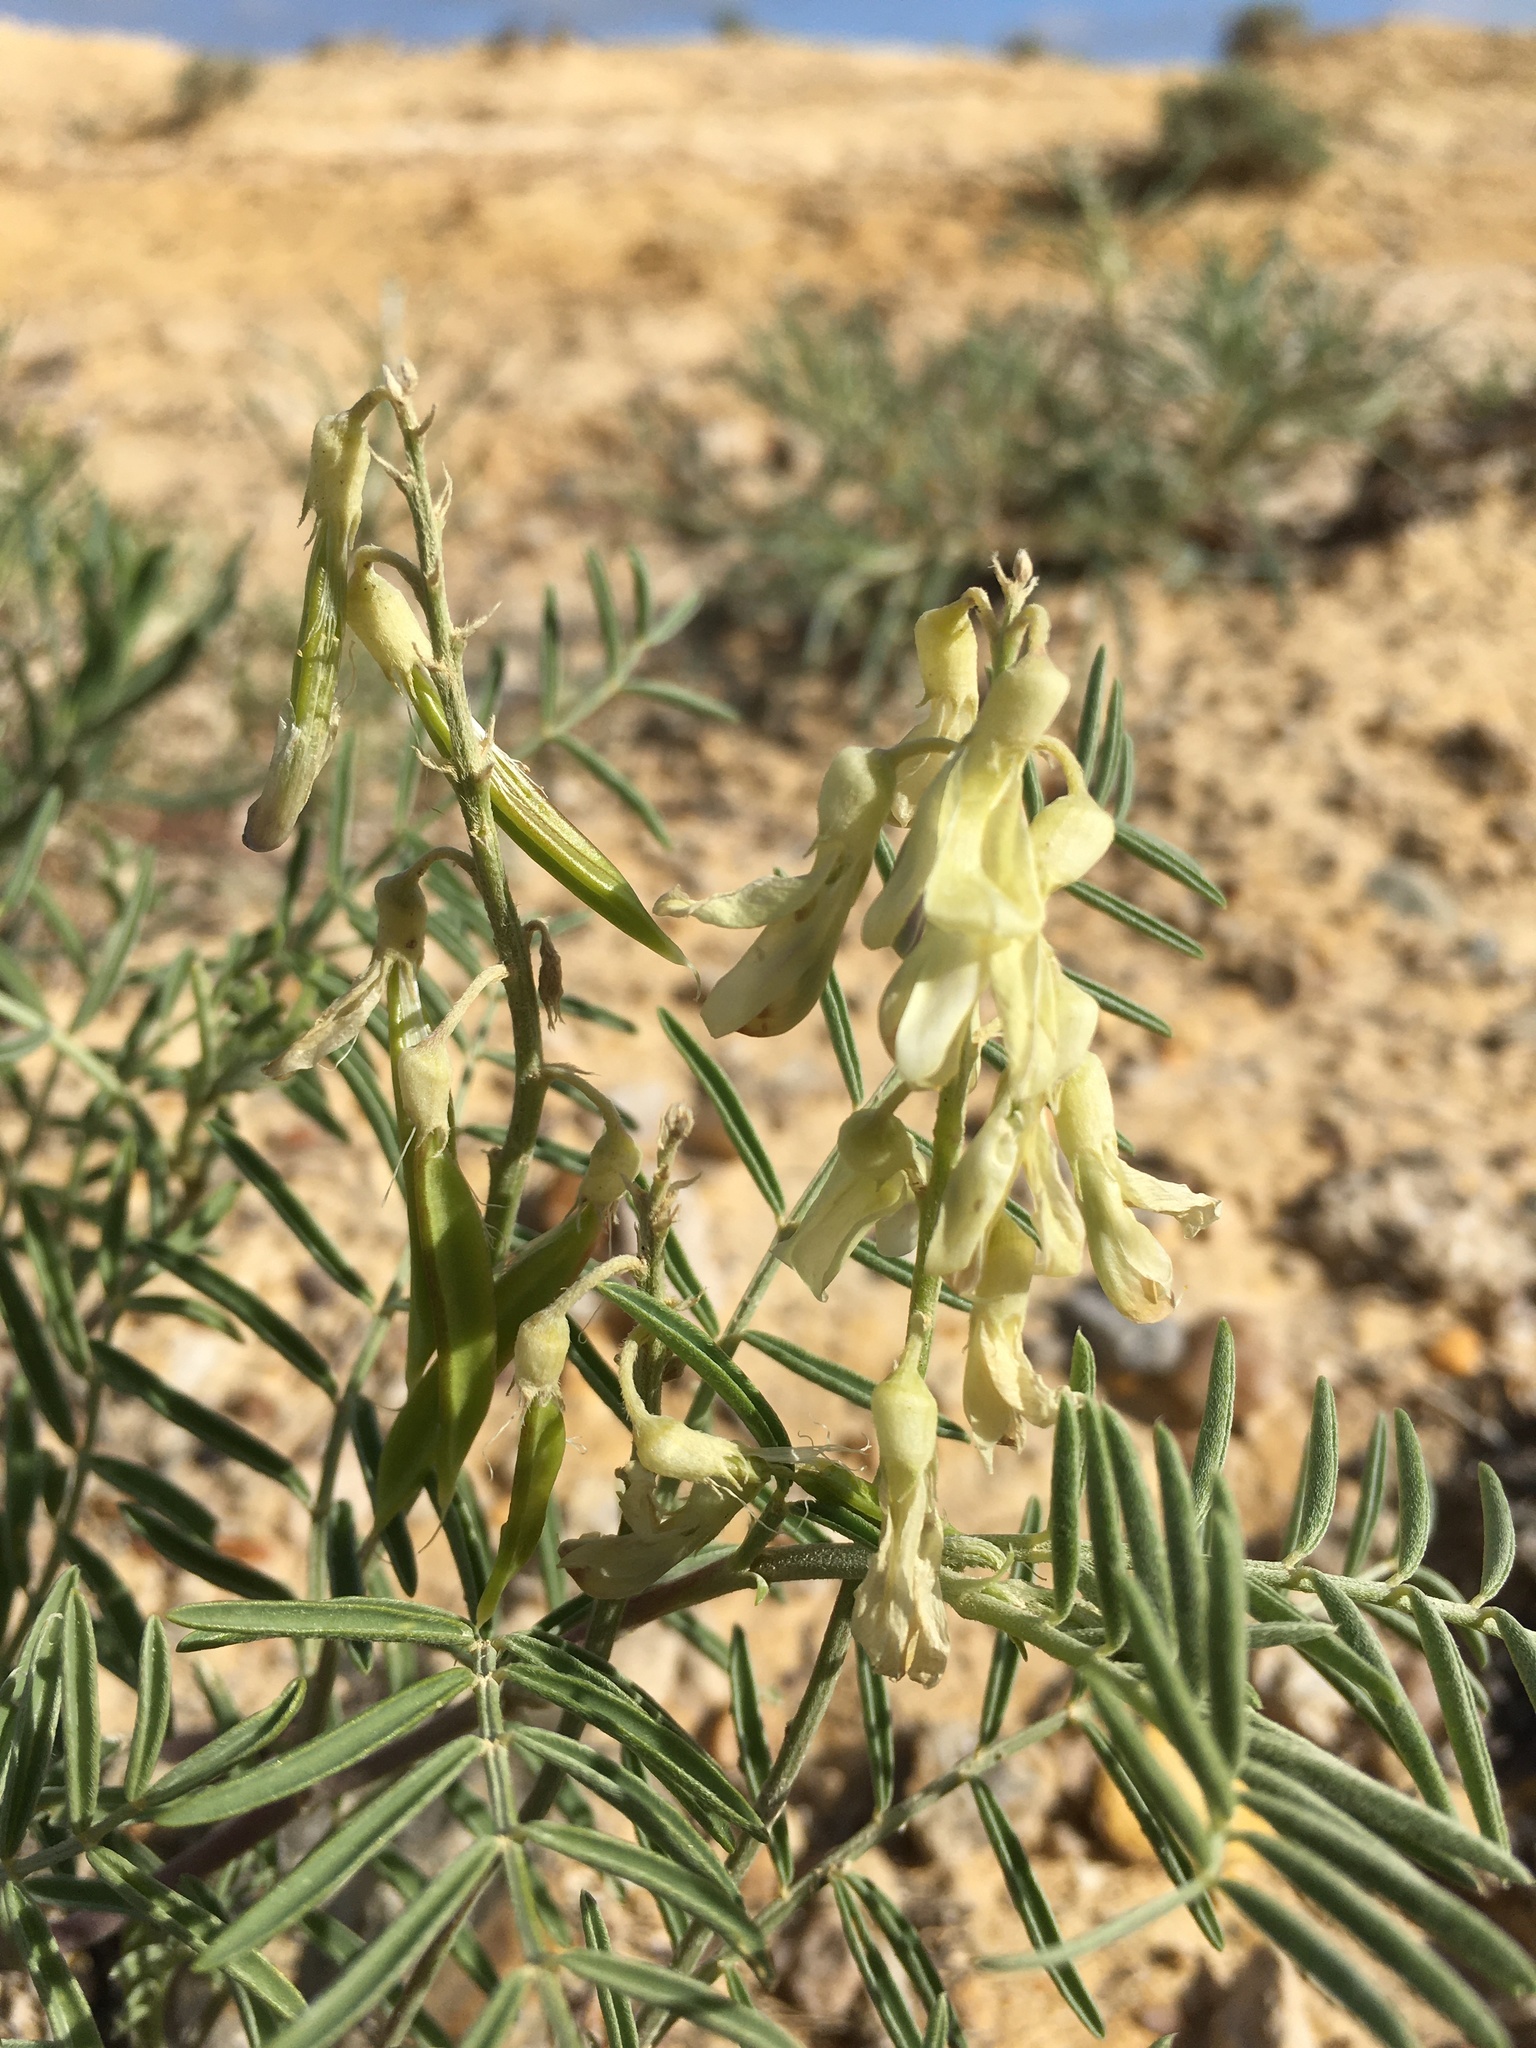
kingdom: Plantae
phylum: Tracheophyta
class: Magnoliopsida
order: Fabales
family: Fabaceae
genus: Astragalus
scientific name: Astragalus racemosus
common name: Alkali milk-vetch
